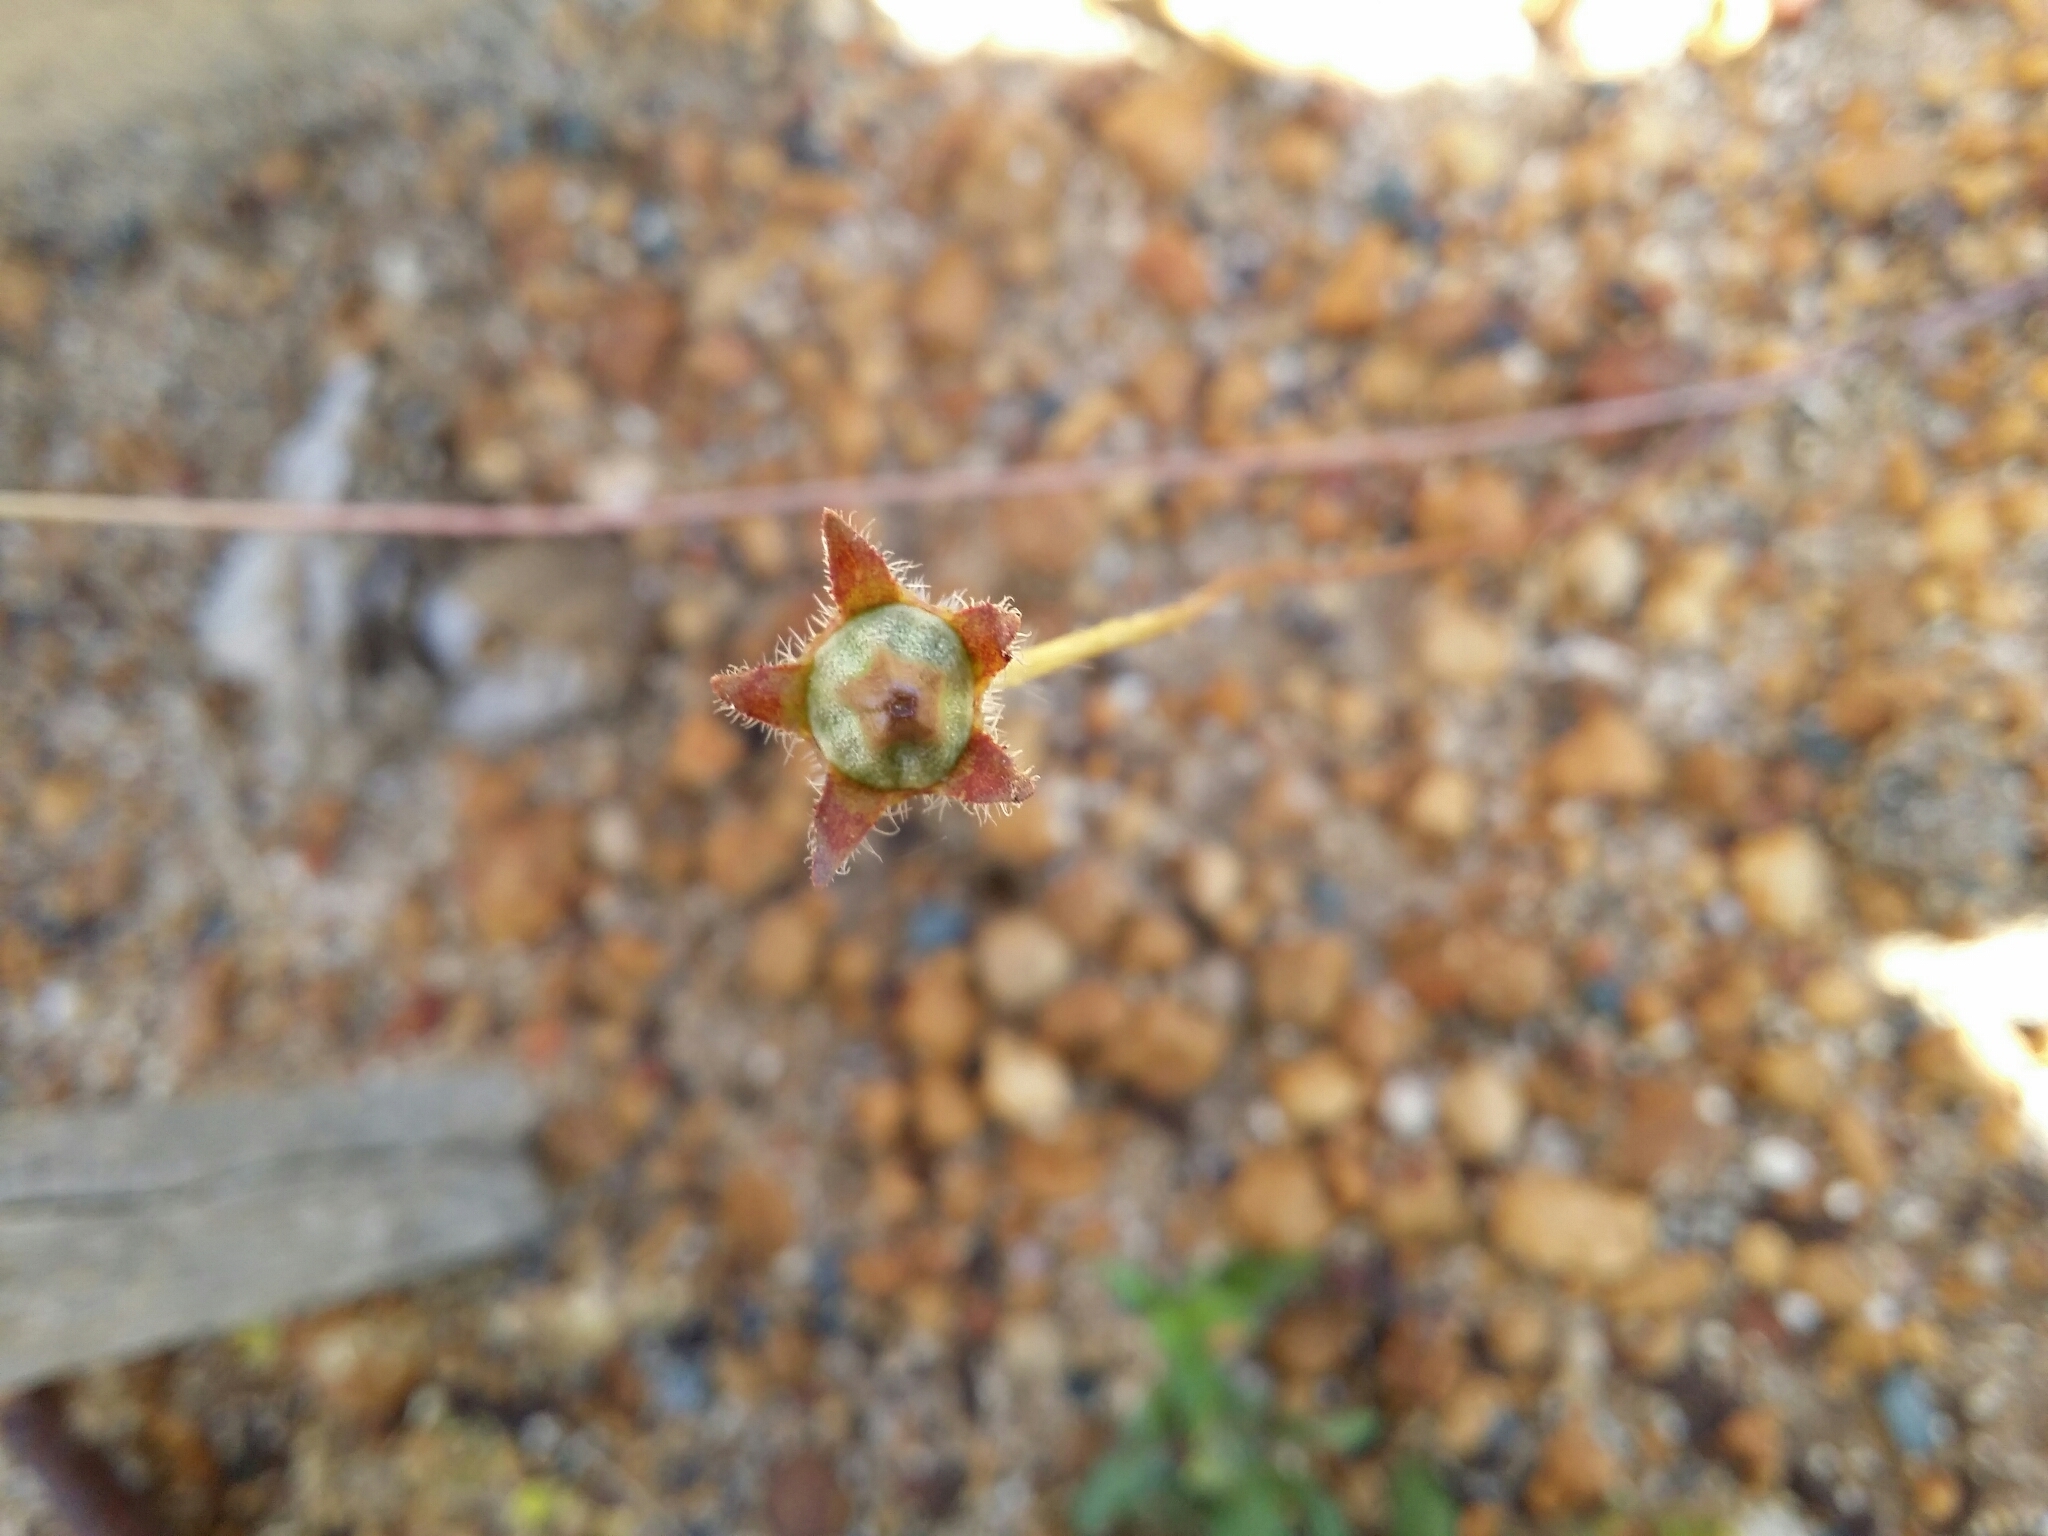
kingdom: Plantae
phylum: Tracheophyta
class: Magnoliopsida
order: Asterales
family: Campanulaceae
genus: Wahlenbergia
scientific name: Wahlenbergia capensis
